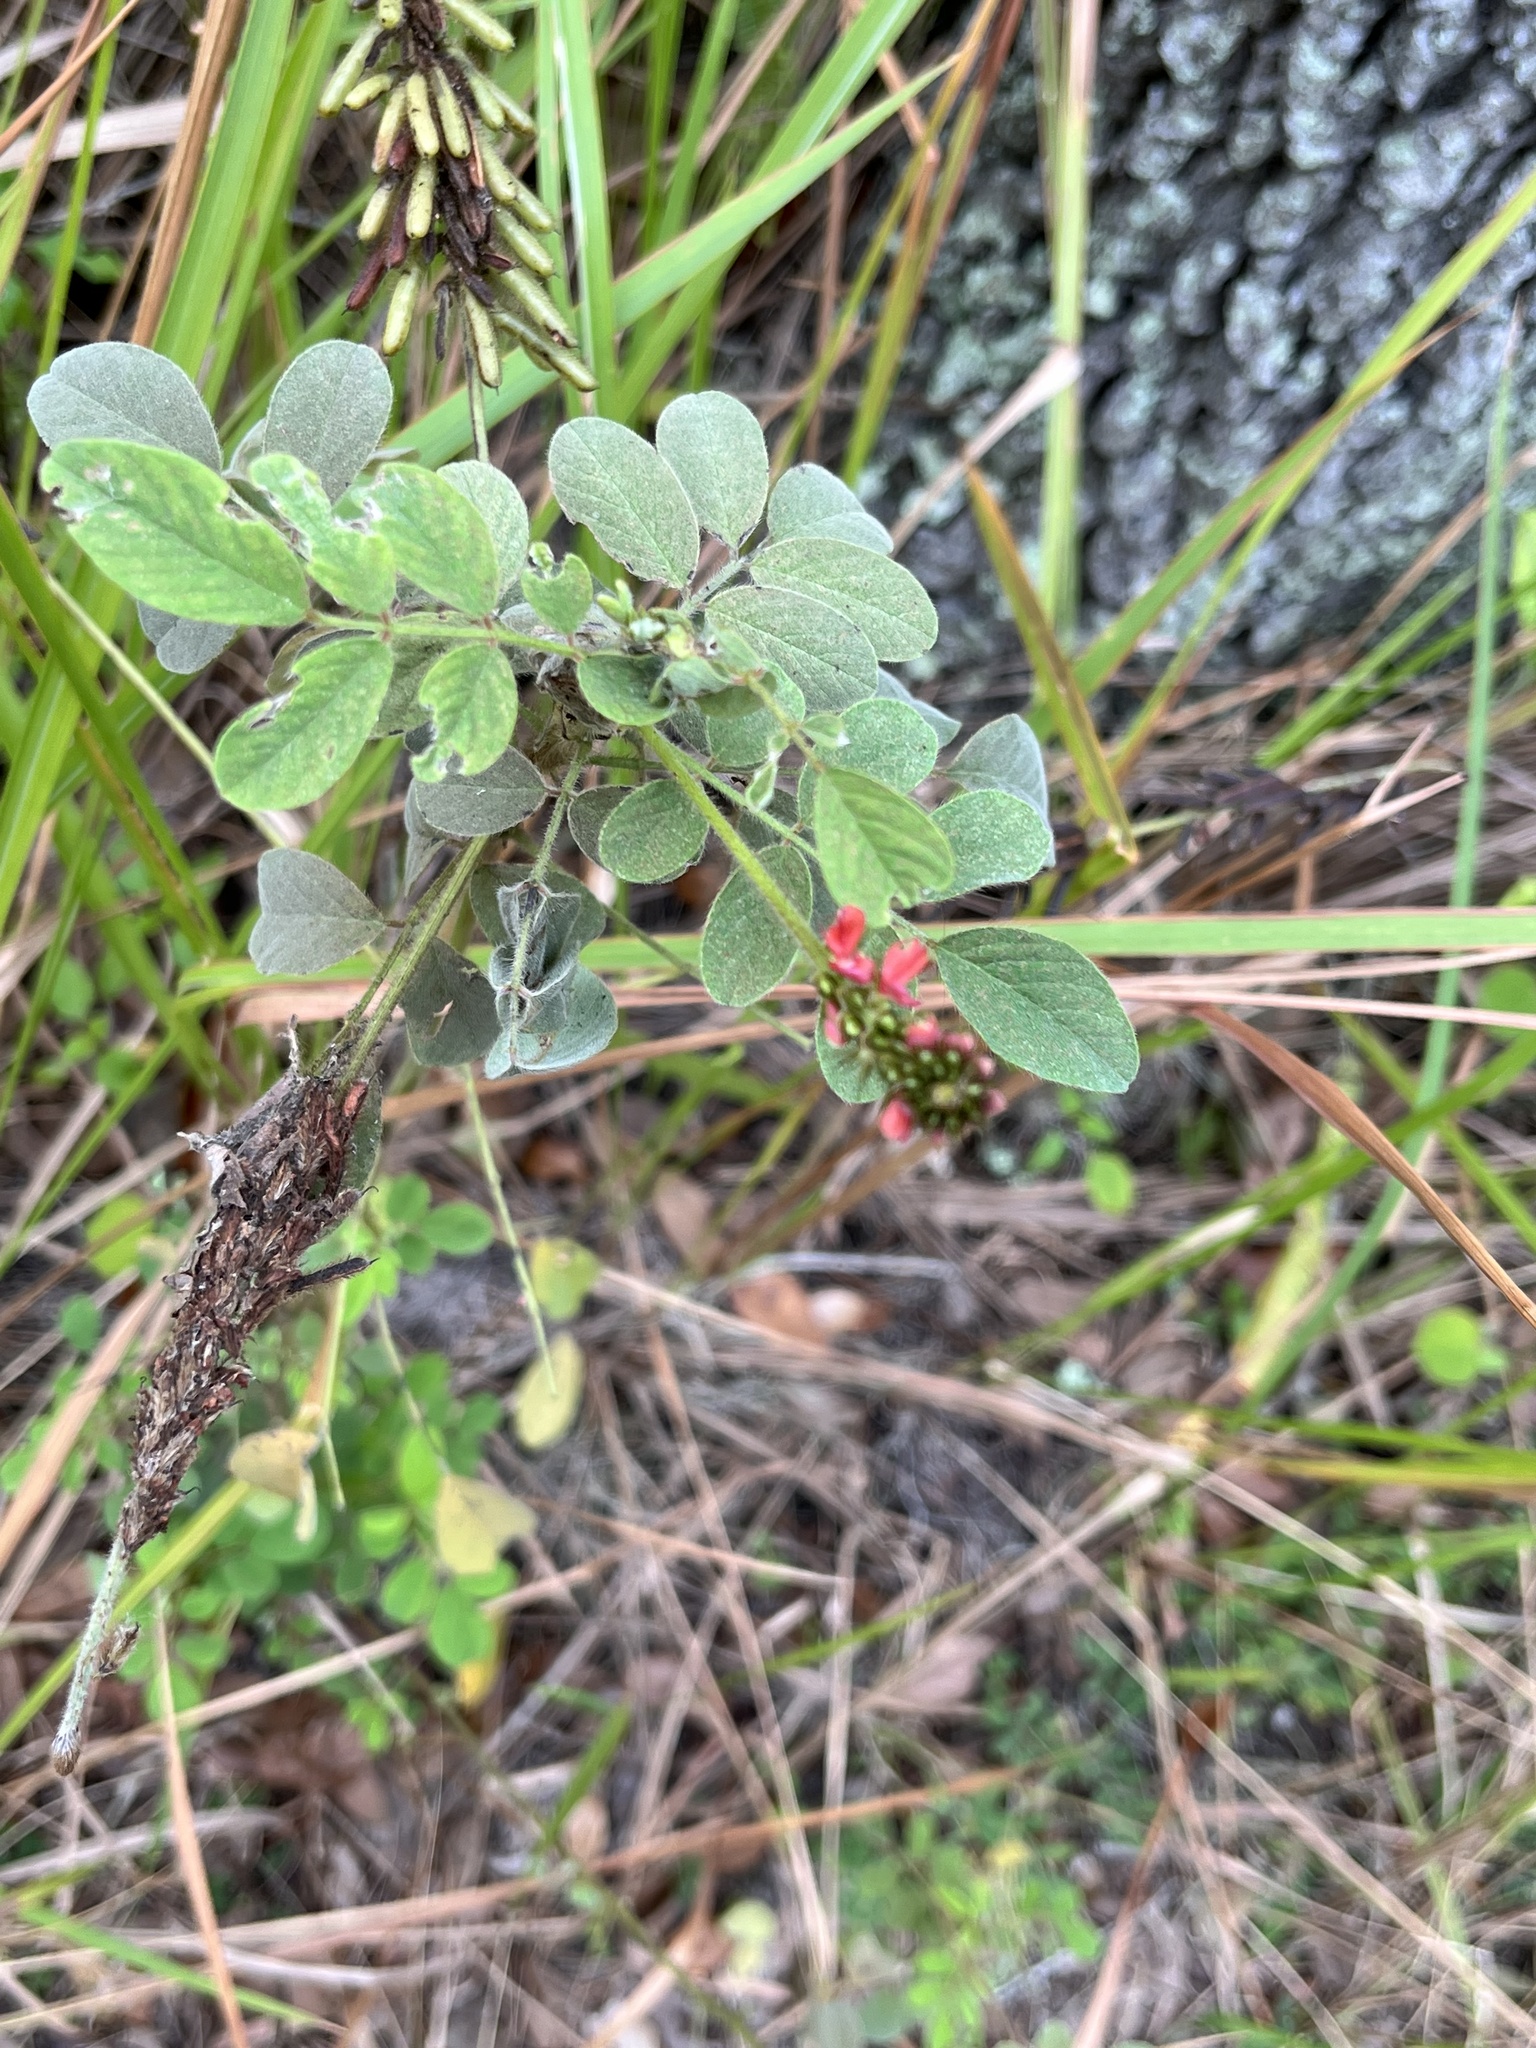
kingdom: Plantae
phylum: Tracheophyta
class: Magnoliopsida
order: Fabales
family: Fabaceae
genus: Indigofera
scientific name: Indigofera hirsuta
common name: Hairy indigo
